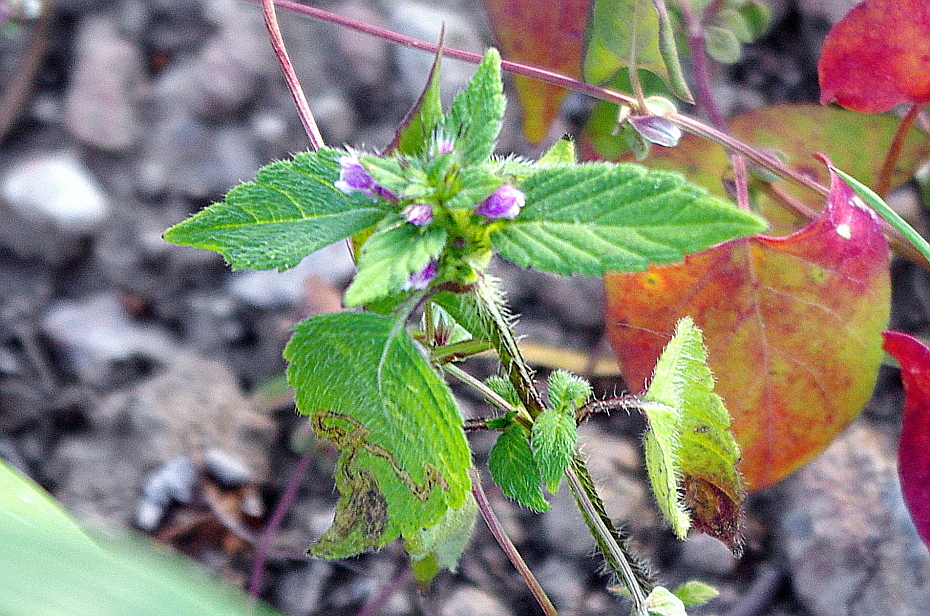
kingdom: Plantae
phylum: Tracheophyta
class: Magnoliopsida
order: Lamiales
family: Lamiaceae
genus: Galeopsis
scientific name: Galeopsis bifida
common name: Bifid hemp-nettle
